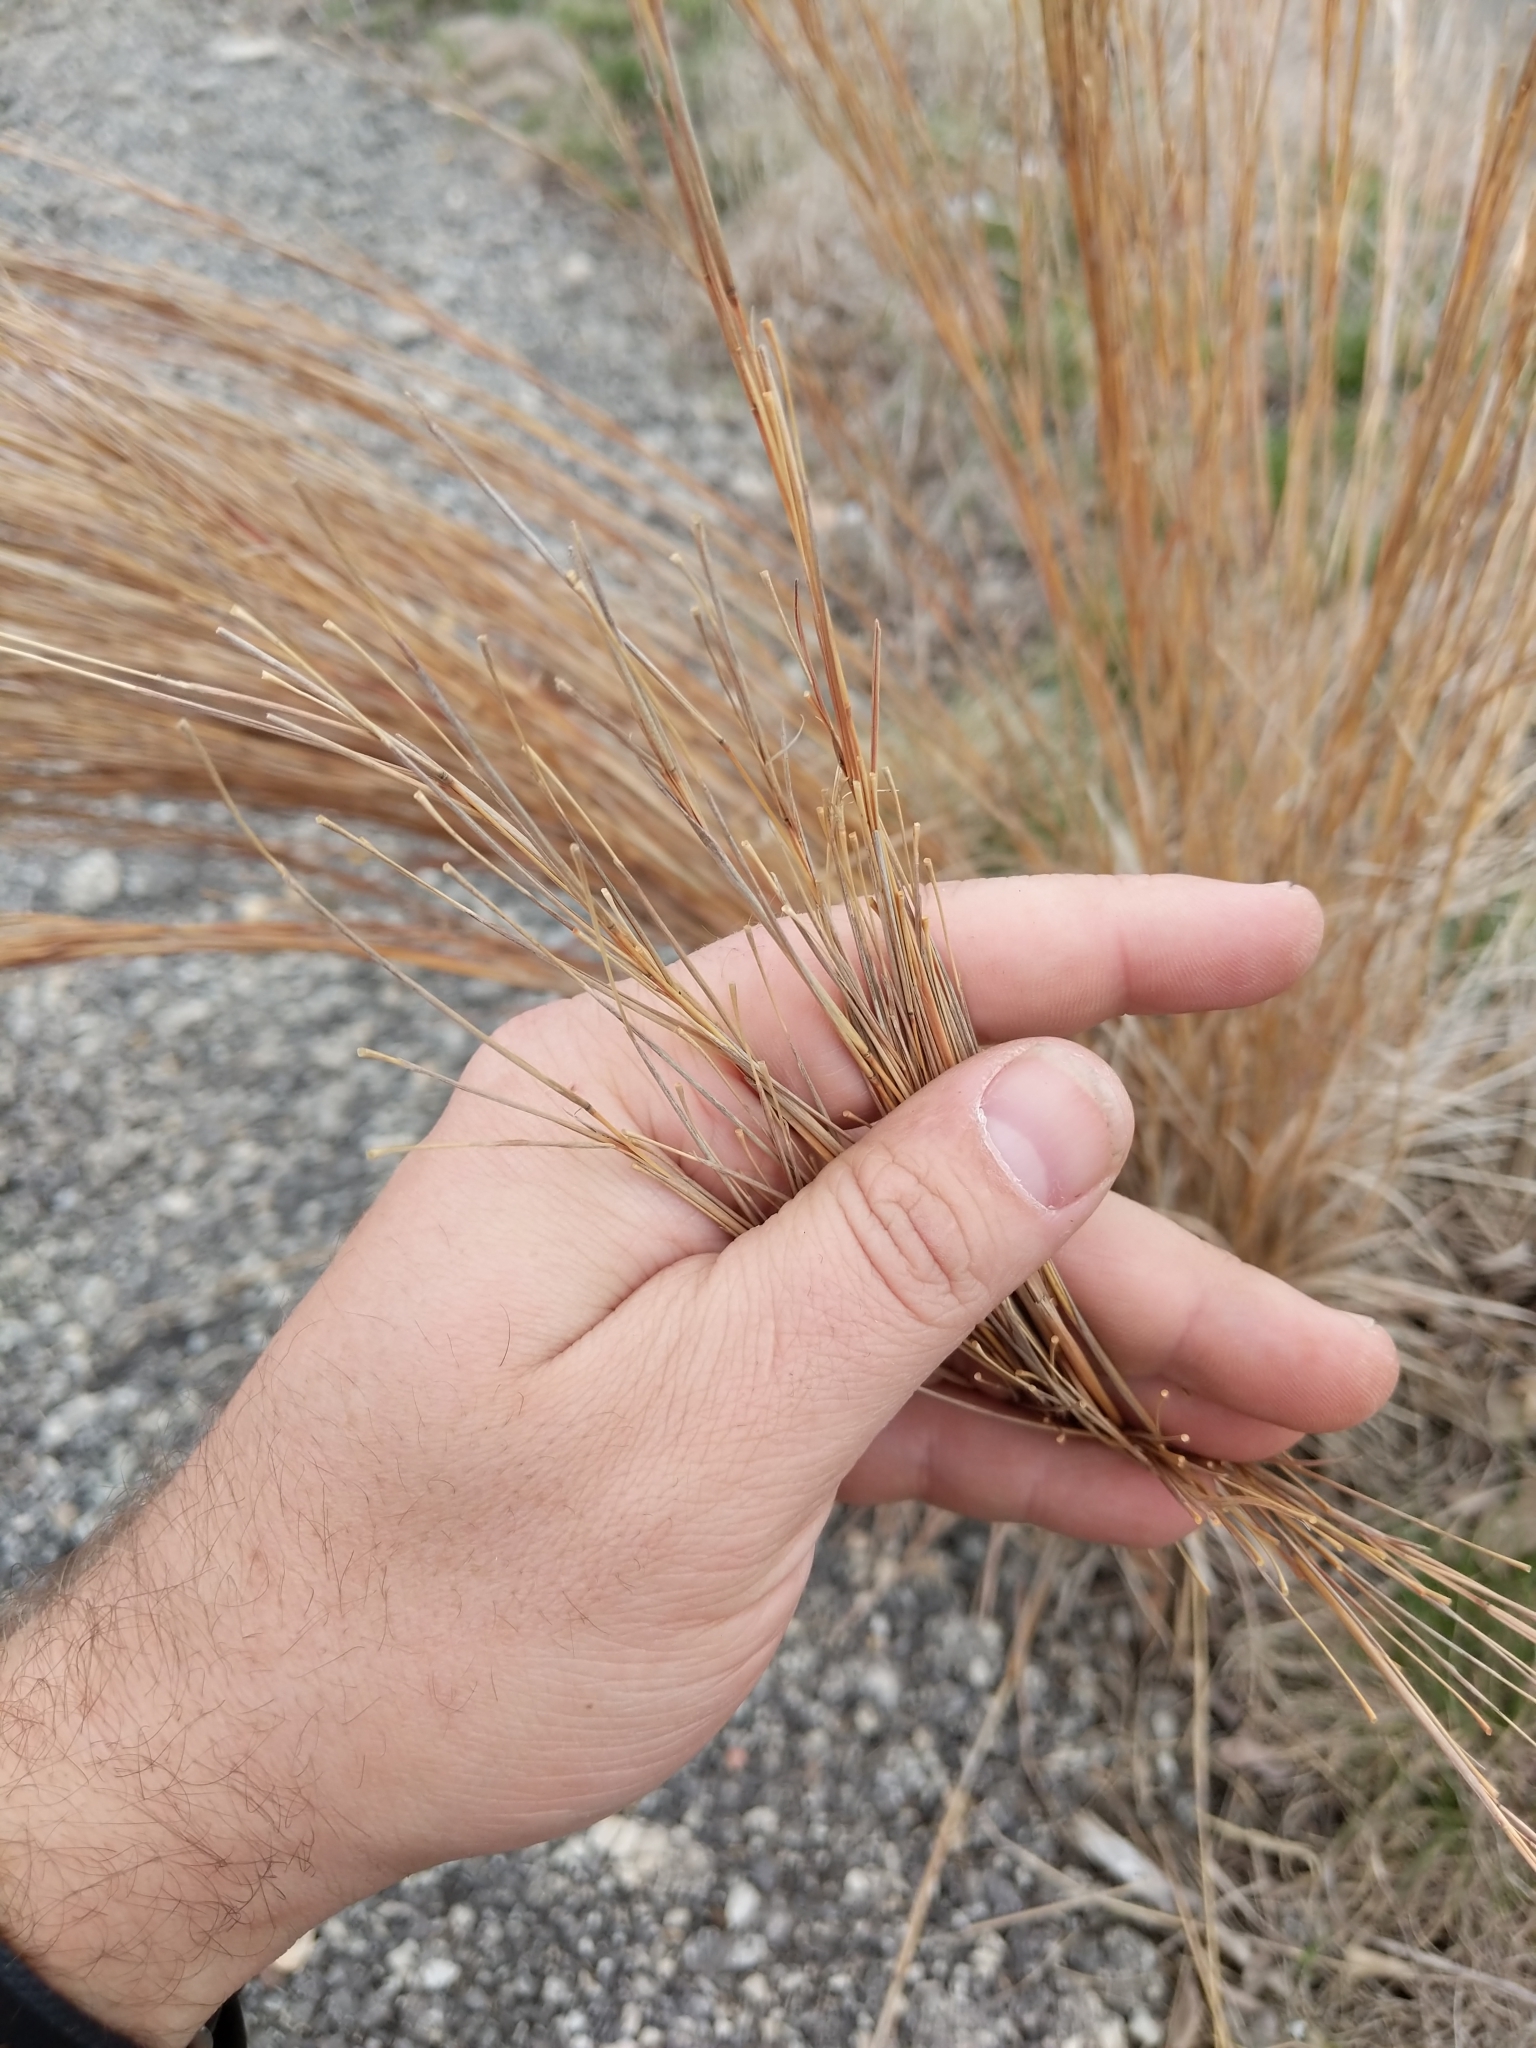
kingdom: Plantae
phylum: Tracheophyta
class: Liliopsida
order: Poales
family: Poaceae
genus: Schizachyrium
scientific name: Schizachyrium scoparium
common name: Little bluestem
